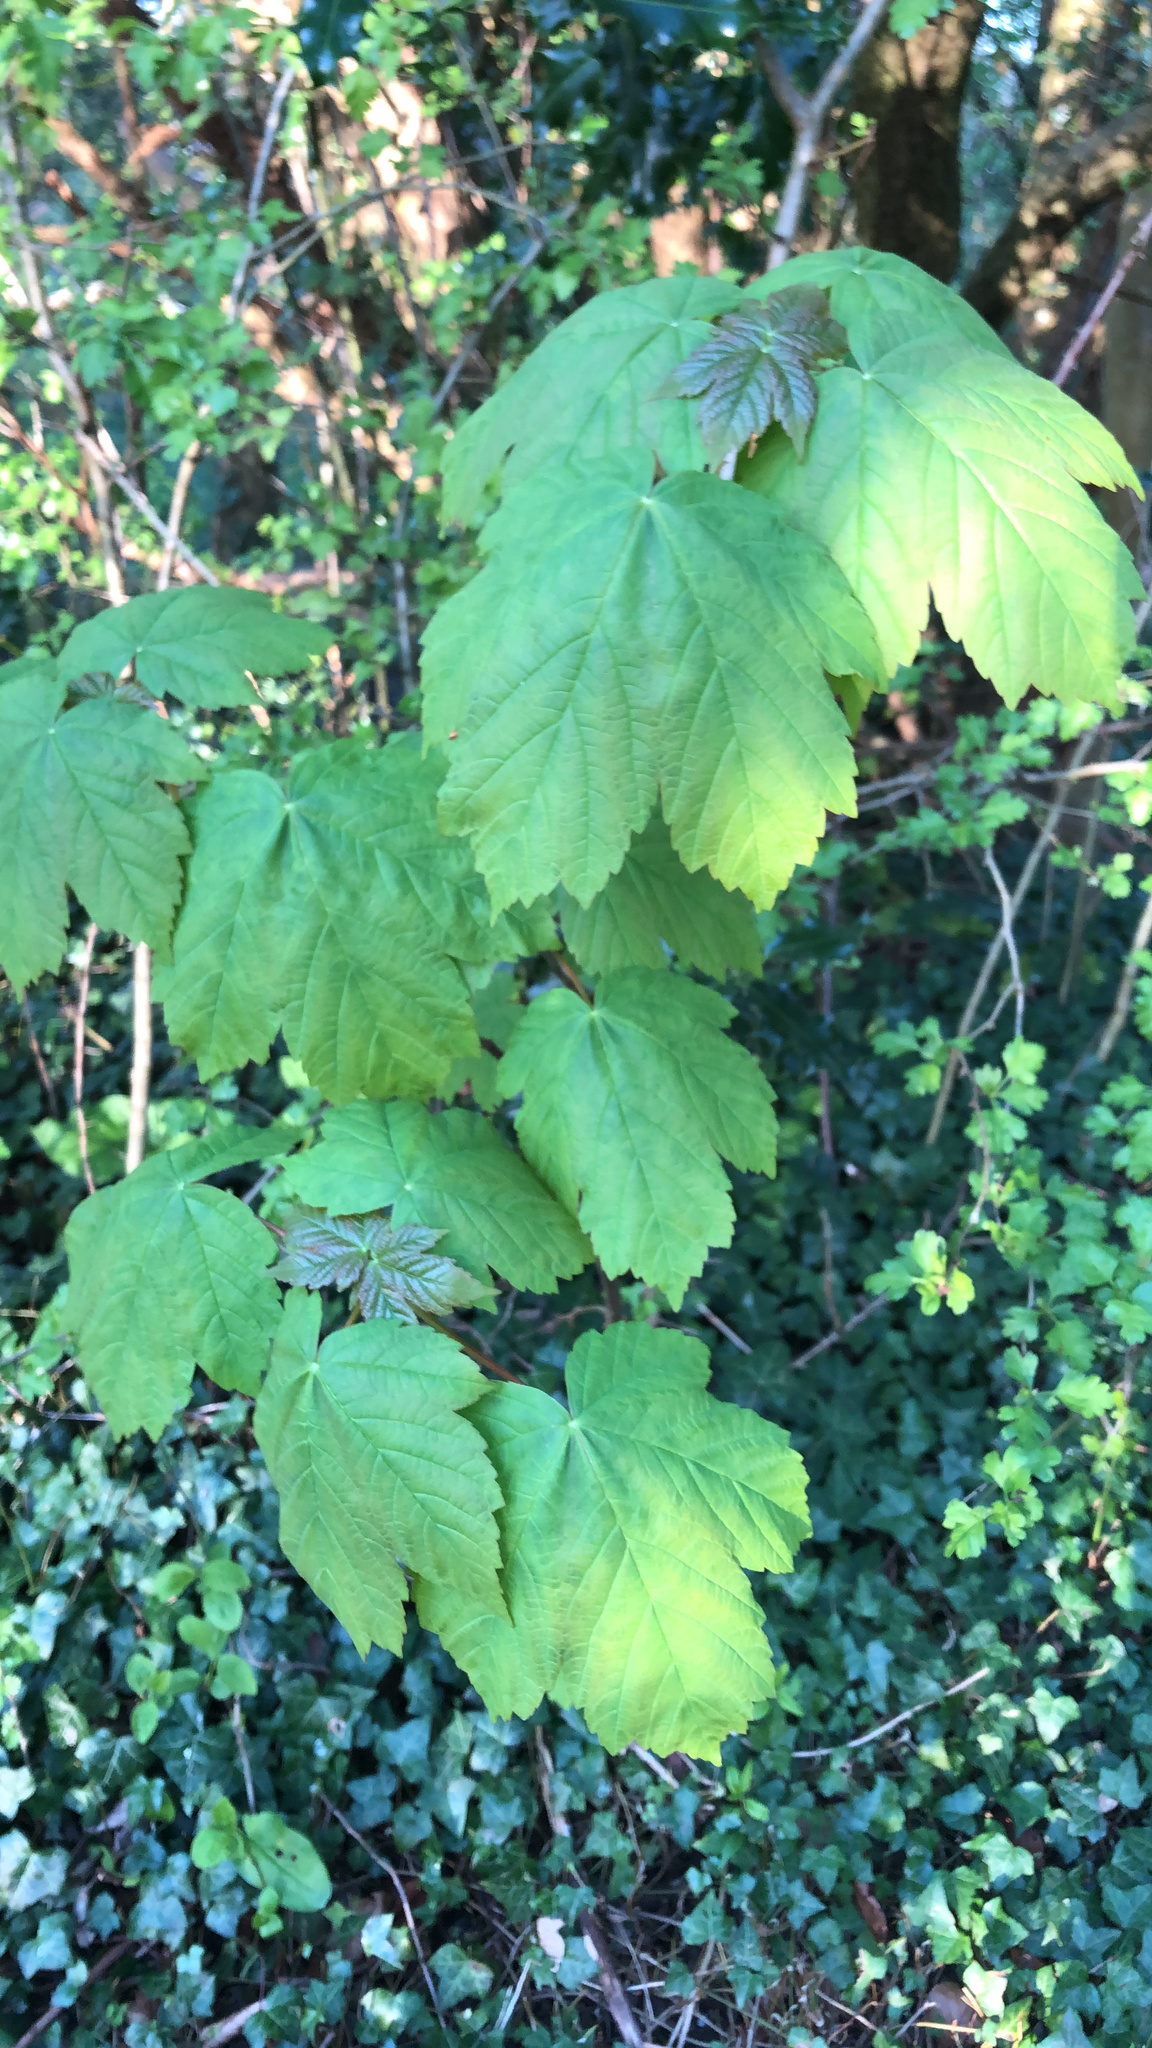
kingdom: Plantae
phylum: Tracheophyta
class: Magnoliopsida
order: Sapindales
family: Sapindaceae
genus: Acer
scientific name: Acer pseudoplatanus
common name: Sycamore
